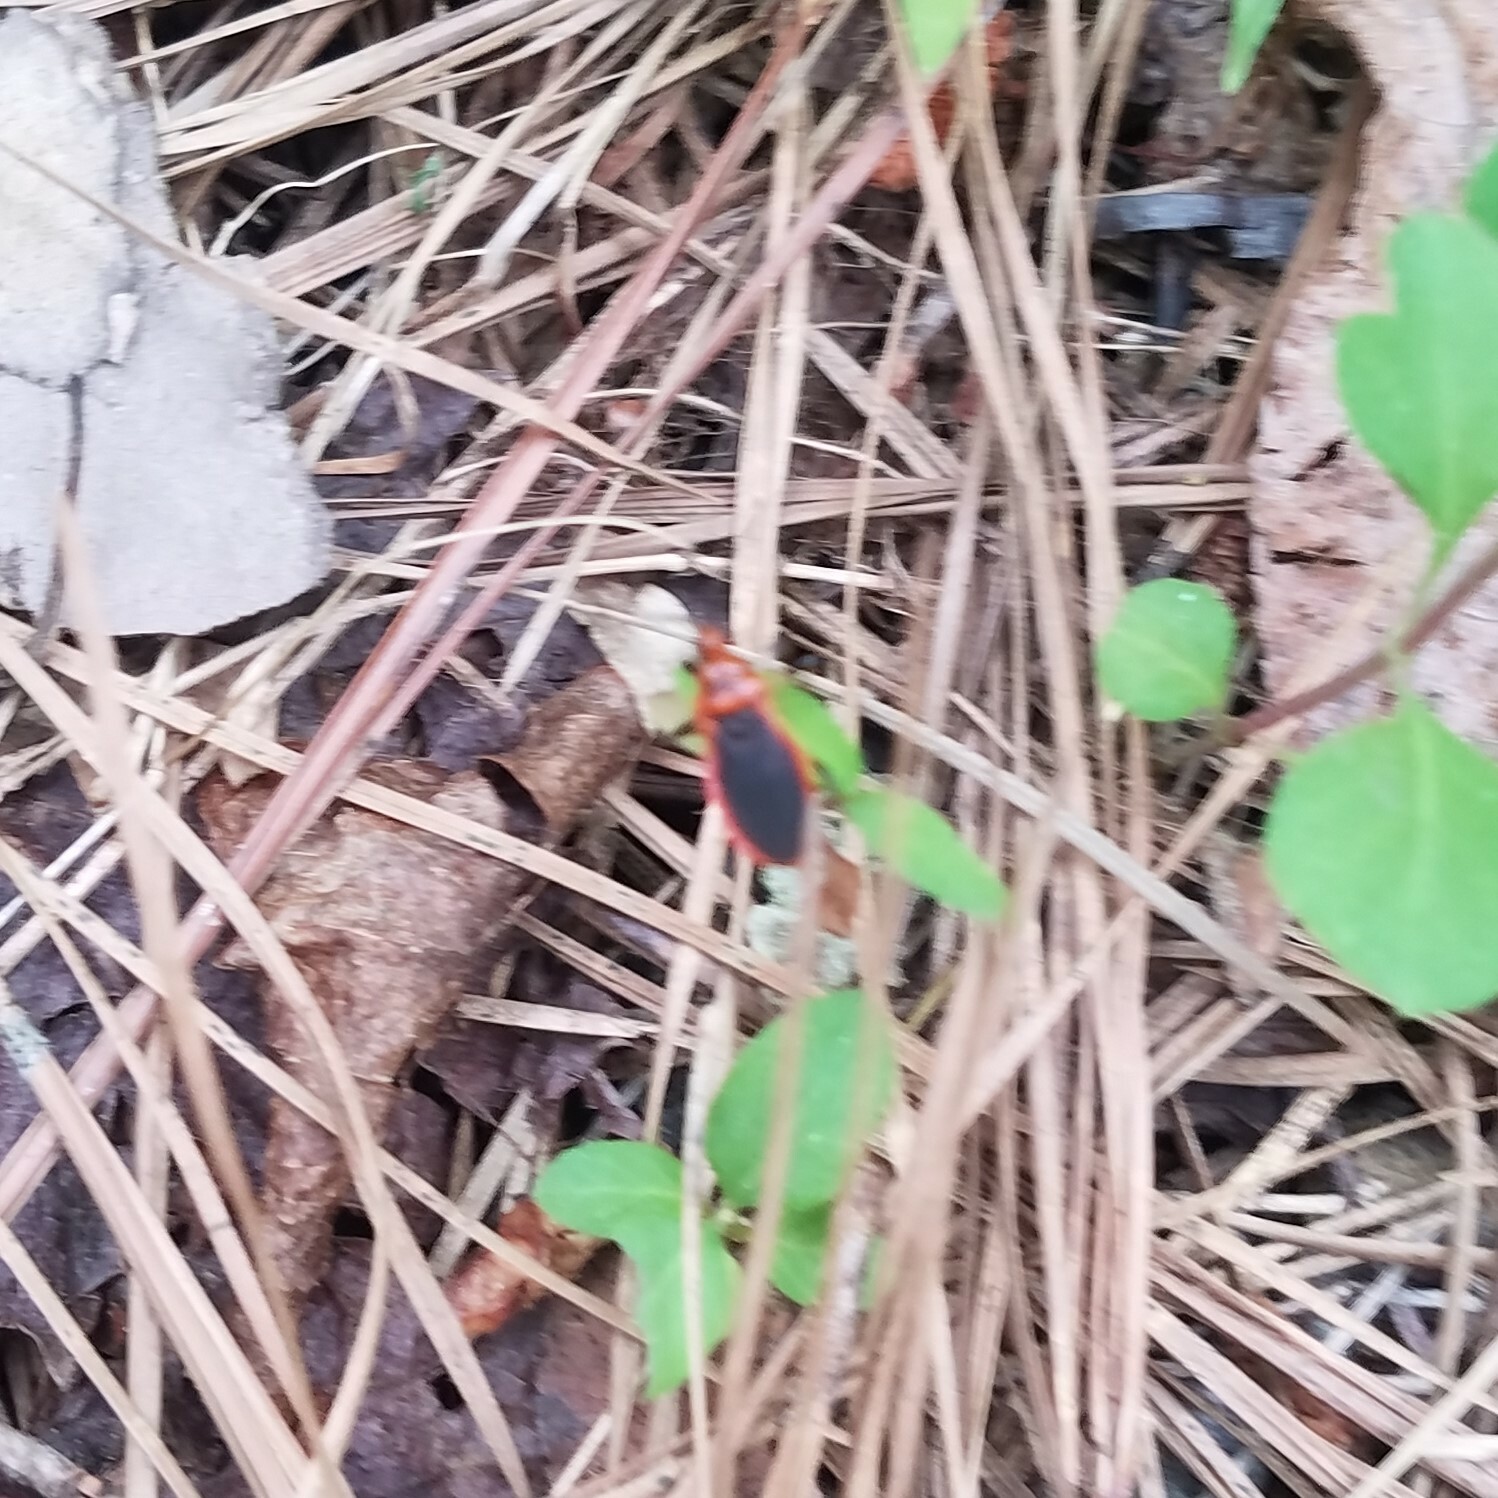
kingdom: Animalia
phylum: Arthropoda
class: Insecta
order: Hemiptera
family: Reduviidae
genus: Rhiginia
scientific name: Rhiginia cruciata
